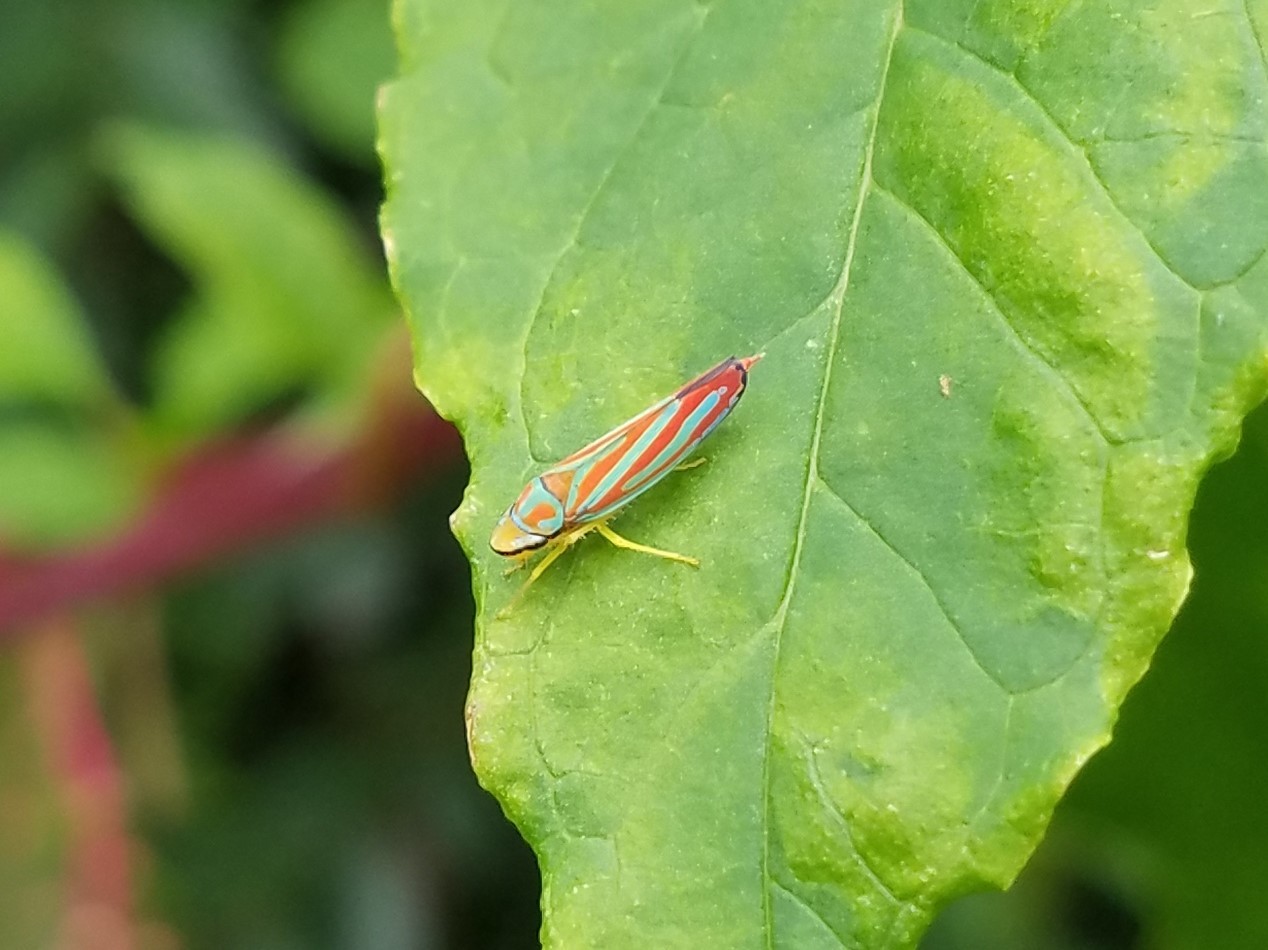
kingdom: Animalia
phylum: Arthropoda
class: Insecta
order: Hemiptera
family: Cicadellidae
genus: Graphocephala
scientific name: Graphocephala coccinea
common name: Candy-striped leafhopper
